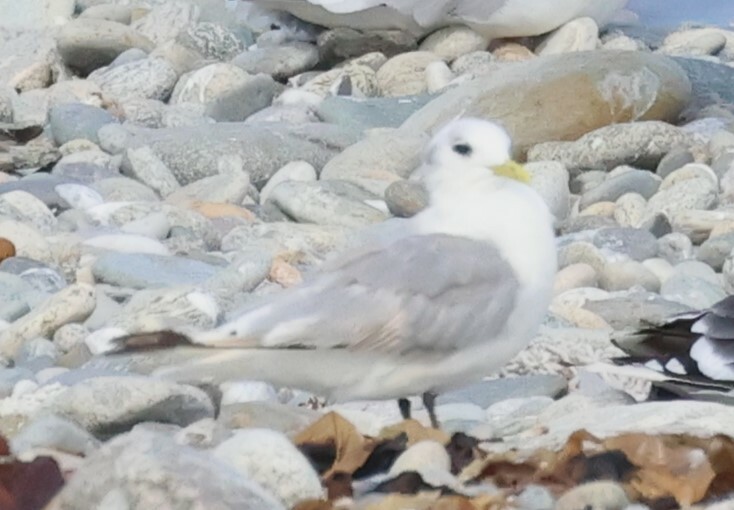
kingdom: Animalia
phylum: Chordata
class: Aves
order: Charadriiformes
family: Laridae
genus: Rissa
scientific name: Rissa tridactyla
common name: Black-legged kittiwake
